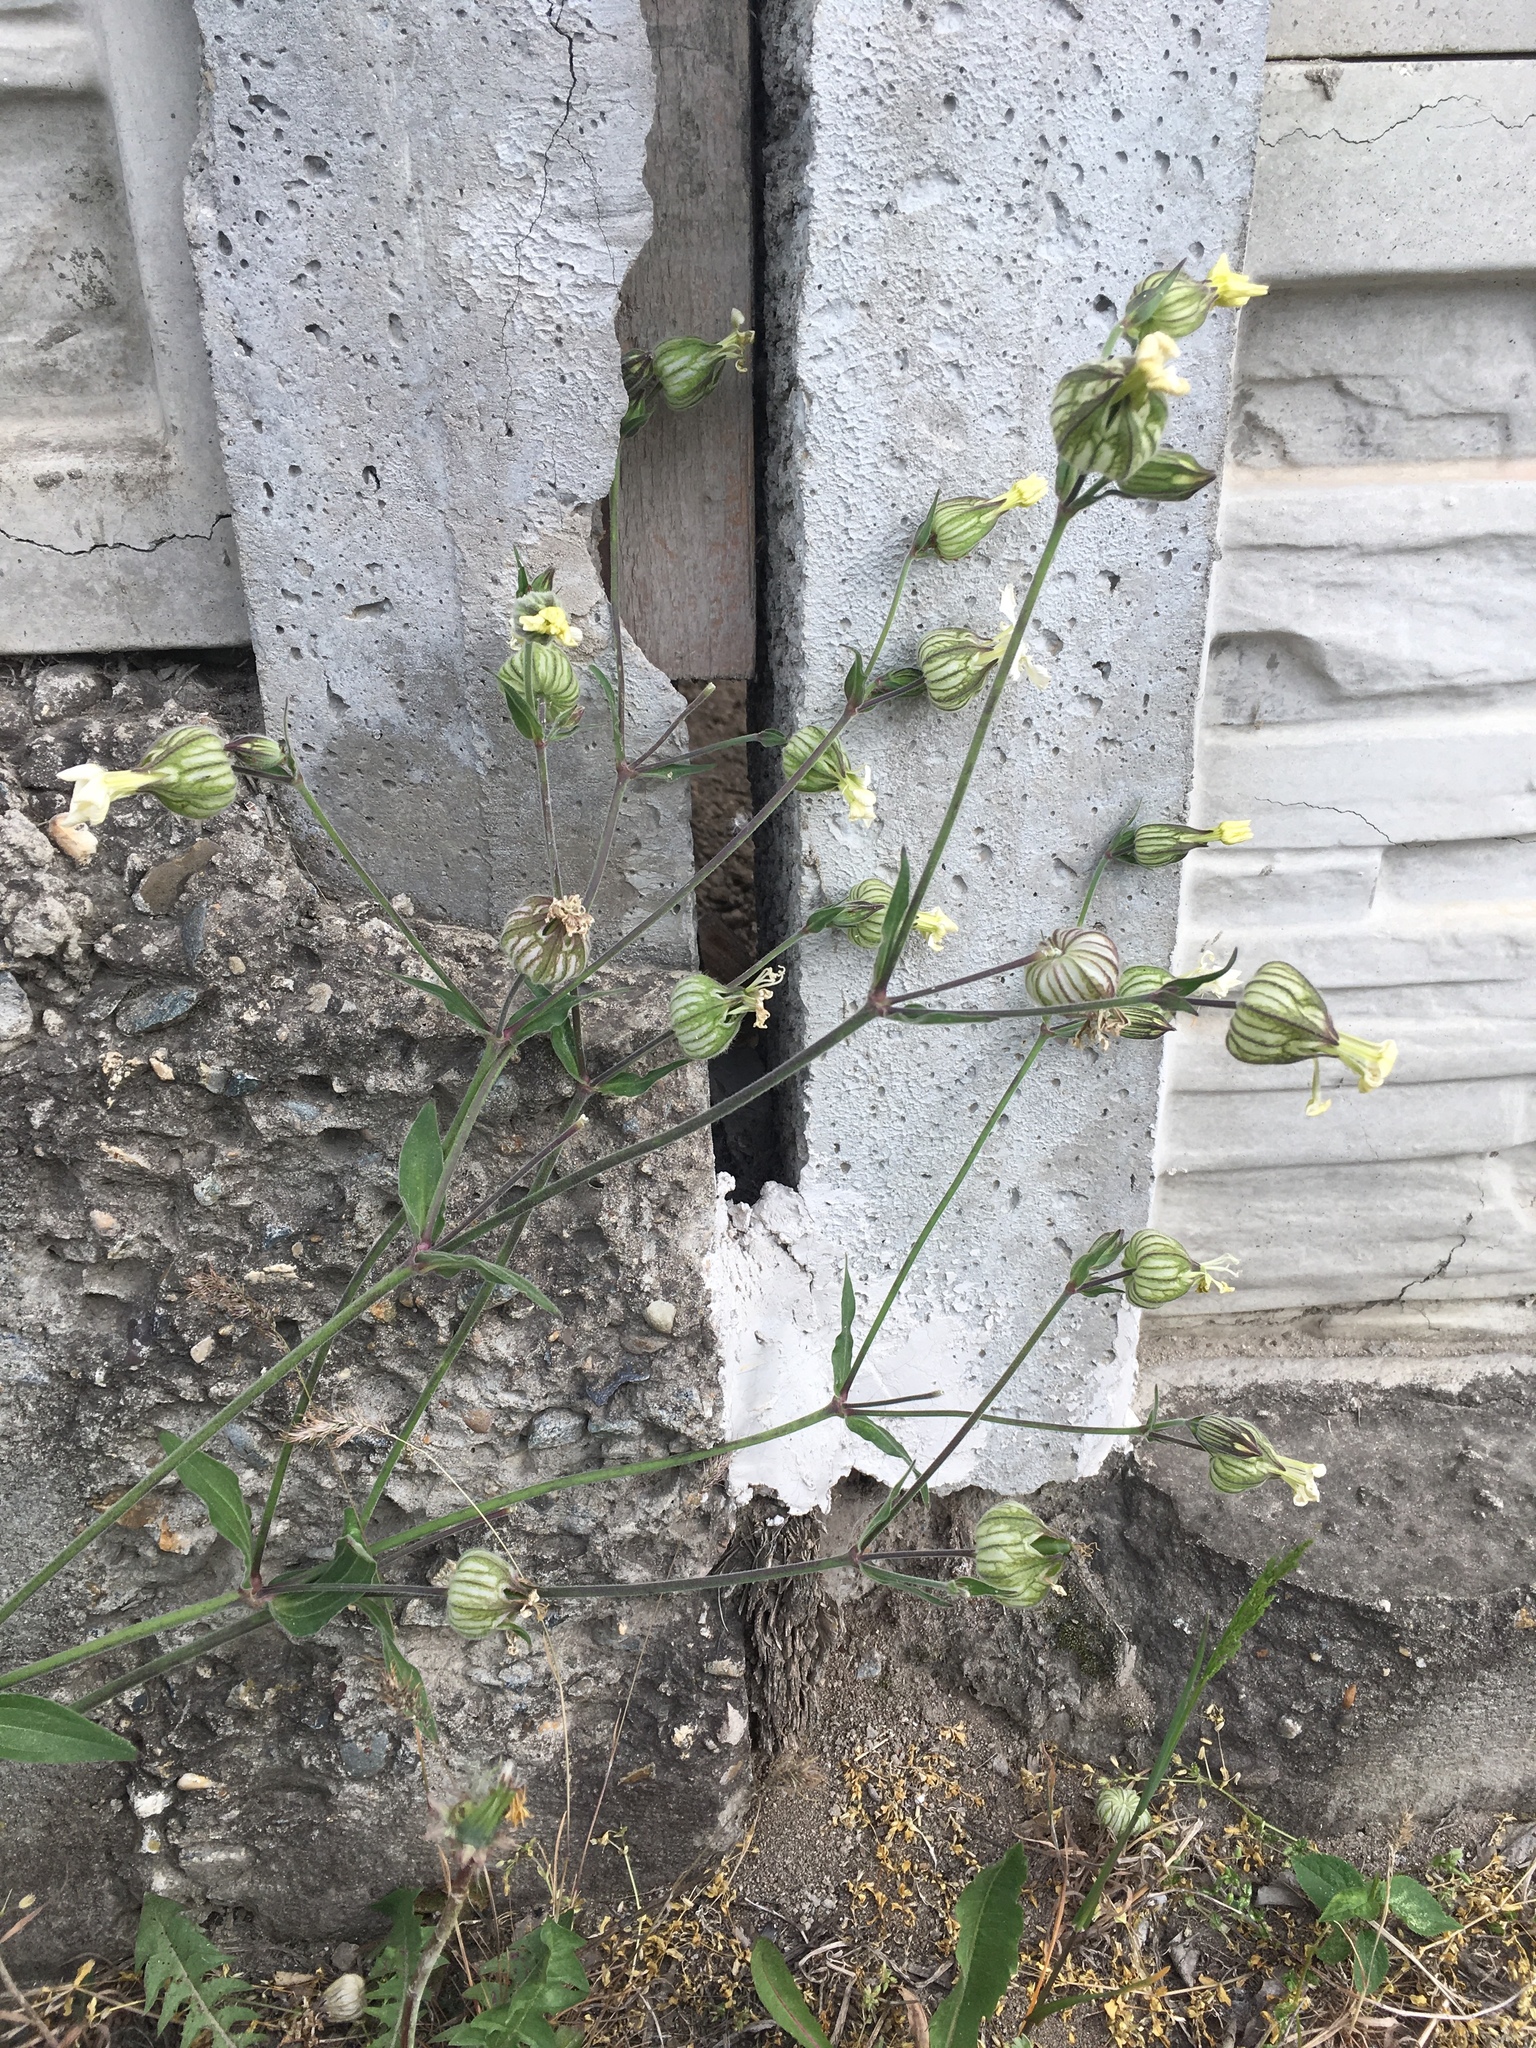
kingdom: Plantae
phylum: Tracheophyta
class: Magnoliopsida
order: Caryophyllales
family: Caryophyllaceae
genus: Silene
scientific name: Silene latifolia
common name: White campion
